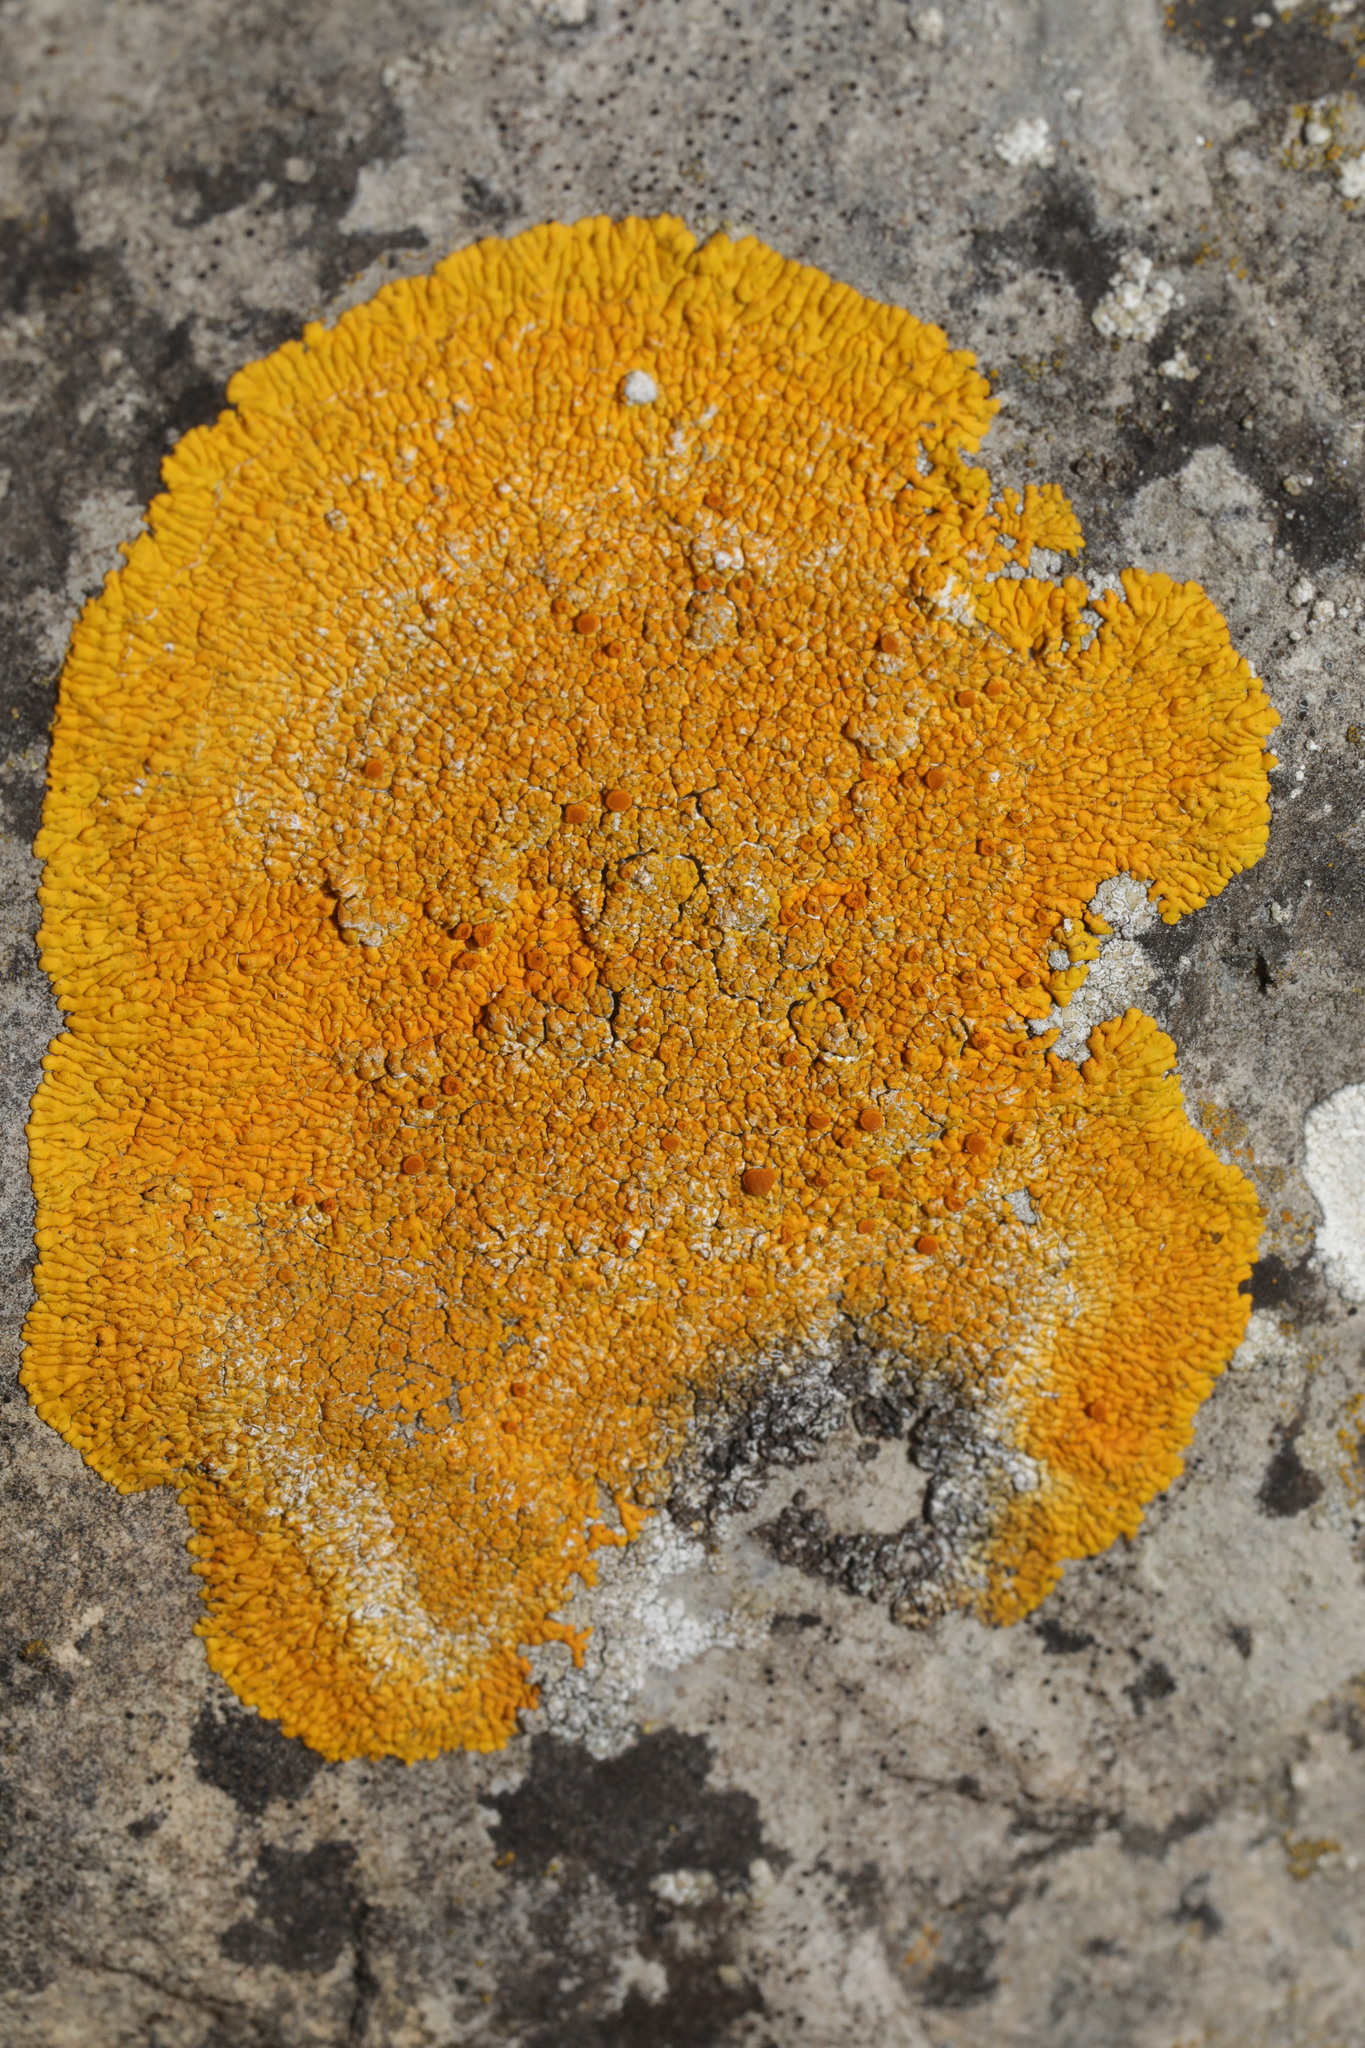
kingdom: Fungi
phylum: Ascomycota
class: Lecanoromycetes
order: Teloschistales
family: Teloschistaceae
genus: Variospora
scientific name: Variospora flavescens
